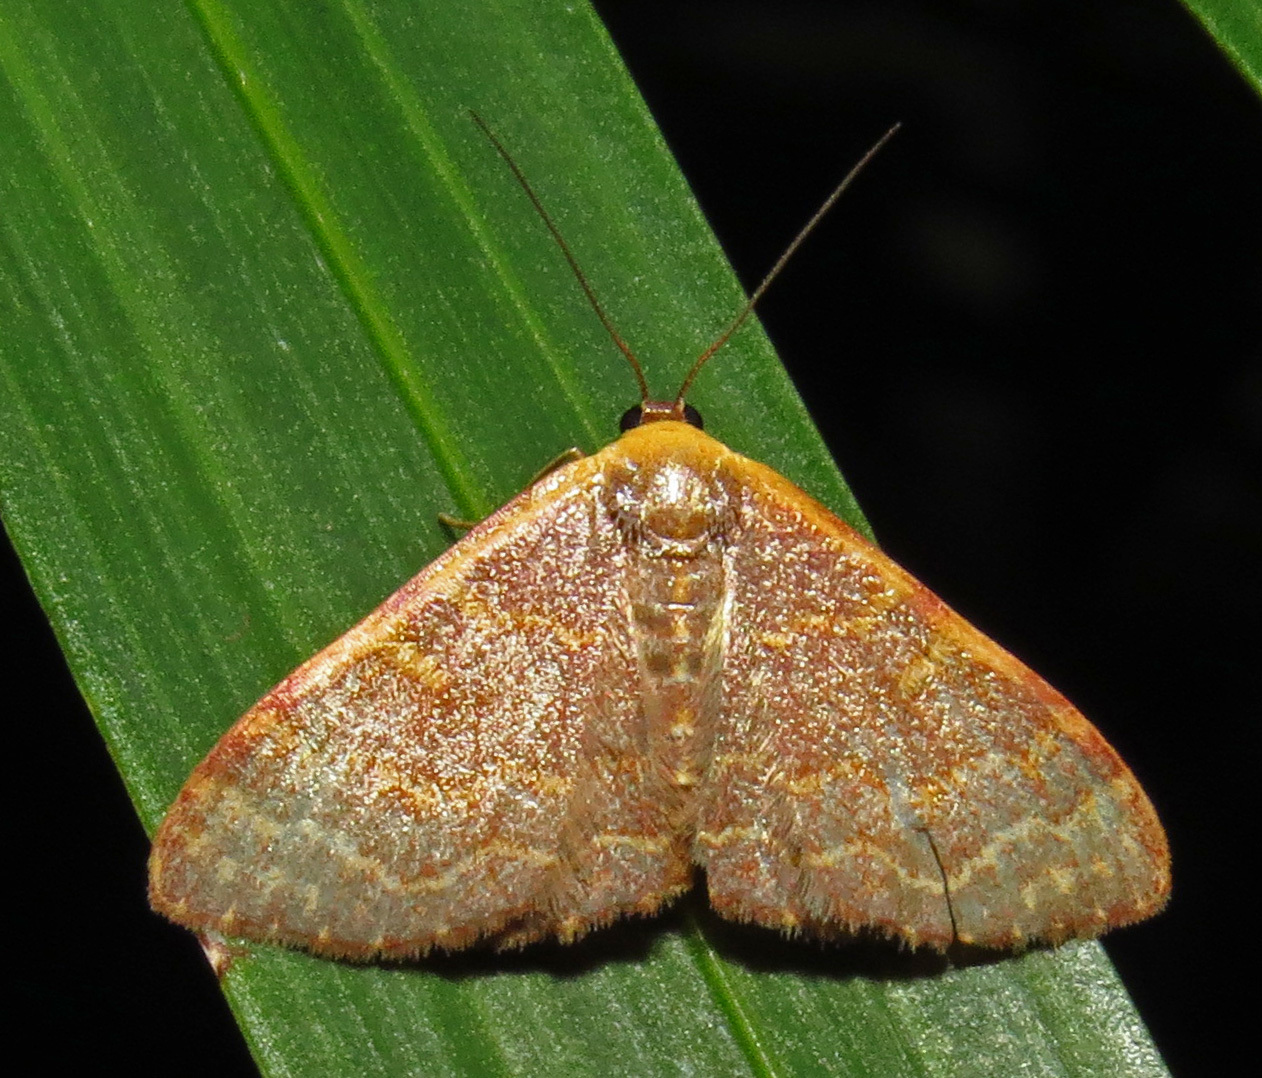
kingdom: Animalia
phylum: Arthropoda
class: Insecta
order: Lepidoptera
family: Geometridae
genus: Leptostales
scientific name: Leptostales pannaria
